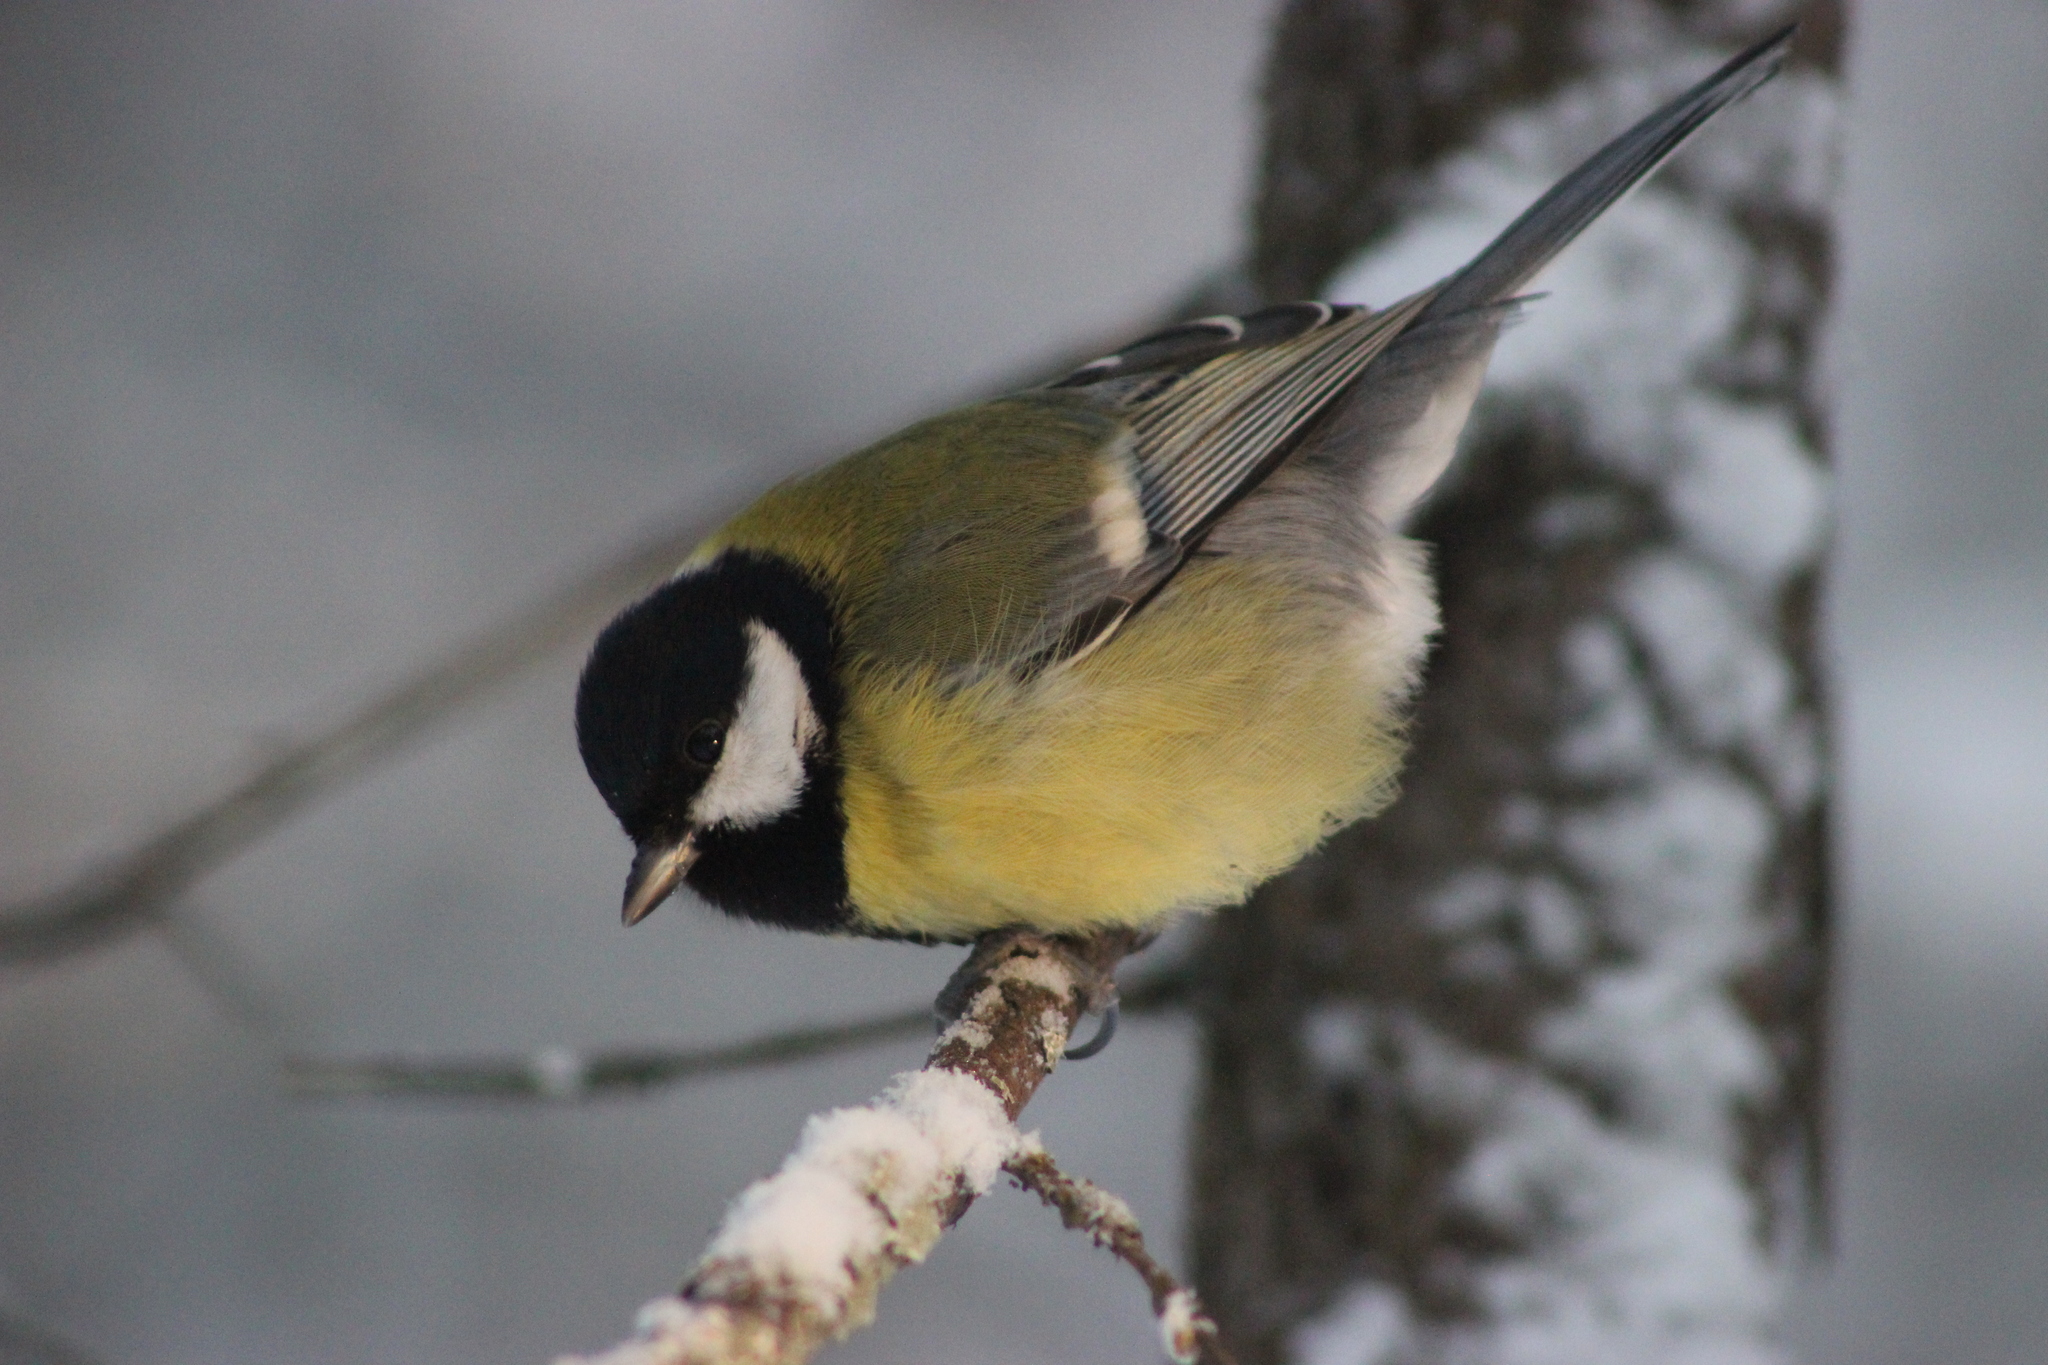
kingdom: Animalia
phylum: Chordata
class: Aves
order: Passeriformes
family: Paridae
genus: Parus
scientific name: Parus major
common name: Great tit
